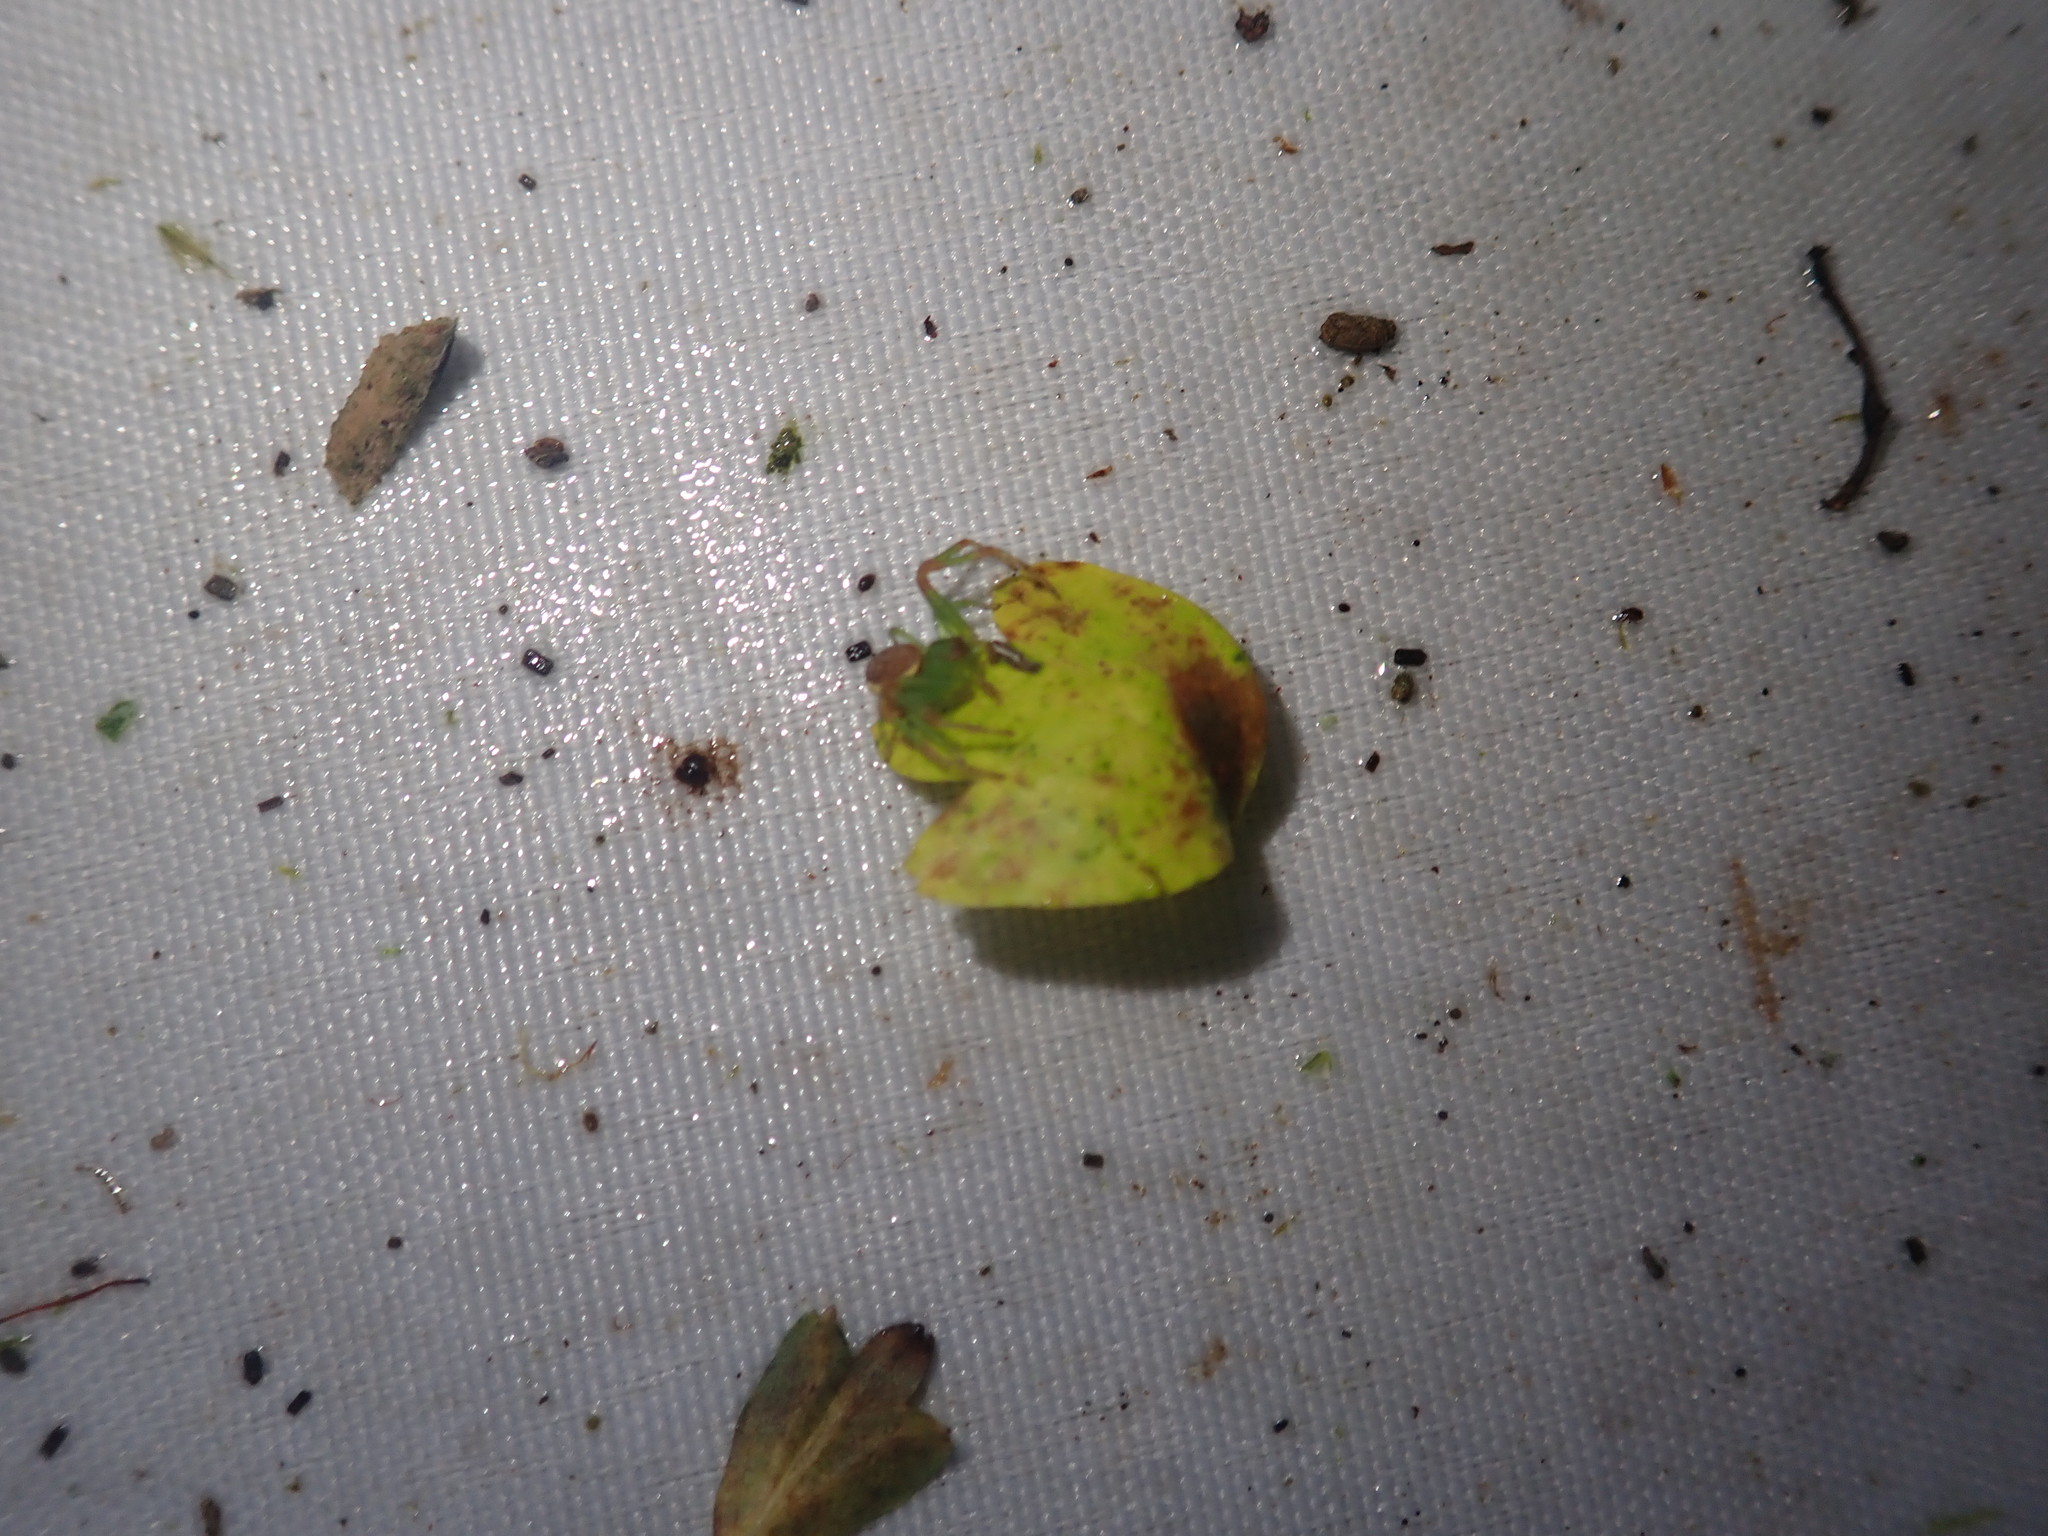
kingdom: Animalia
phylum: Arthropoda
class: Arachnida
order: Araneae
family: Thomisidae
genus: Diaea
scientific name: Diaea dorsata
